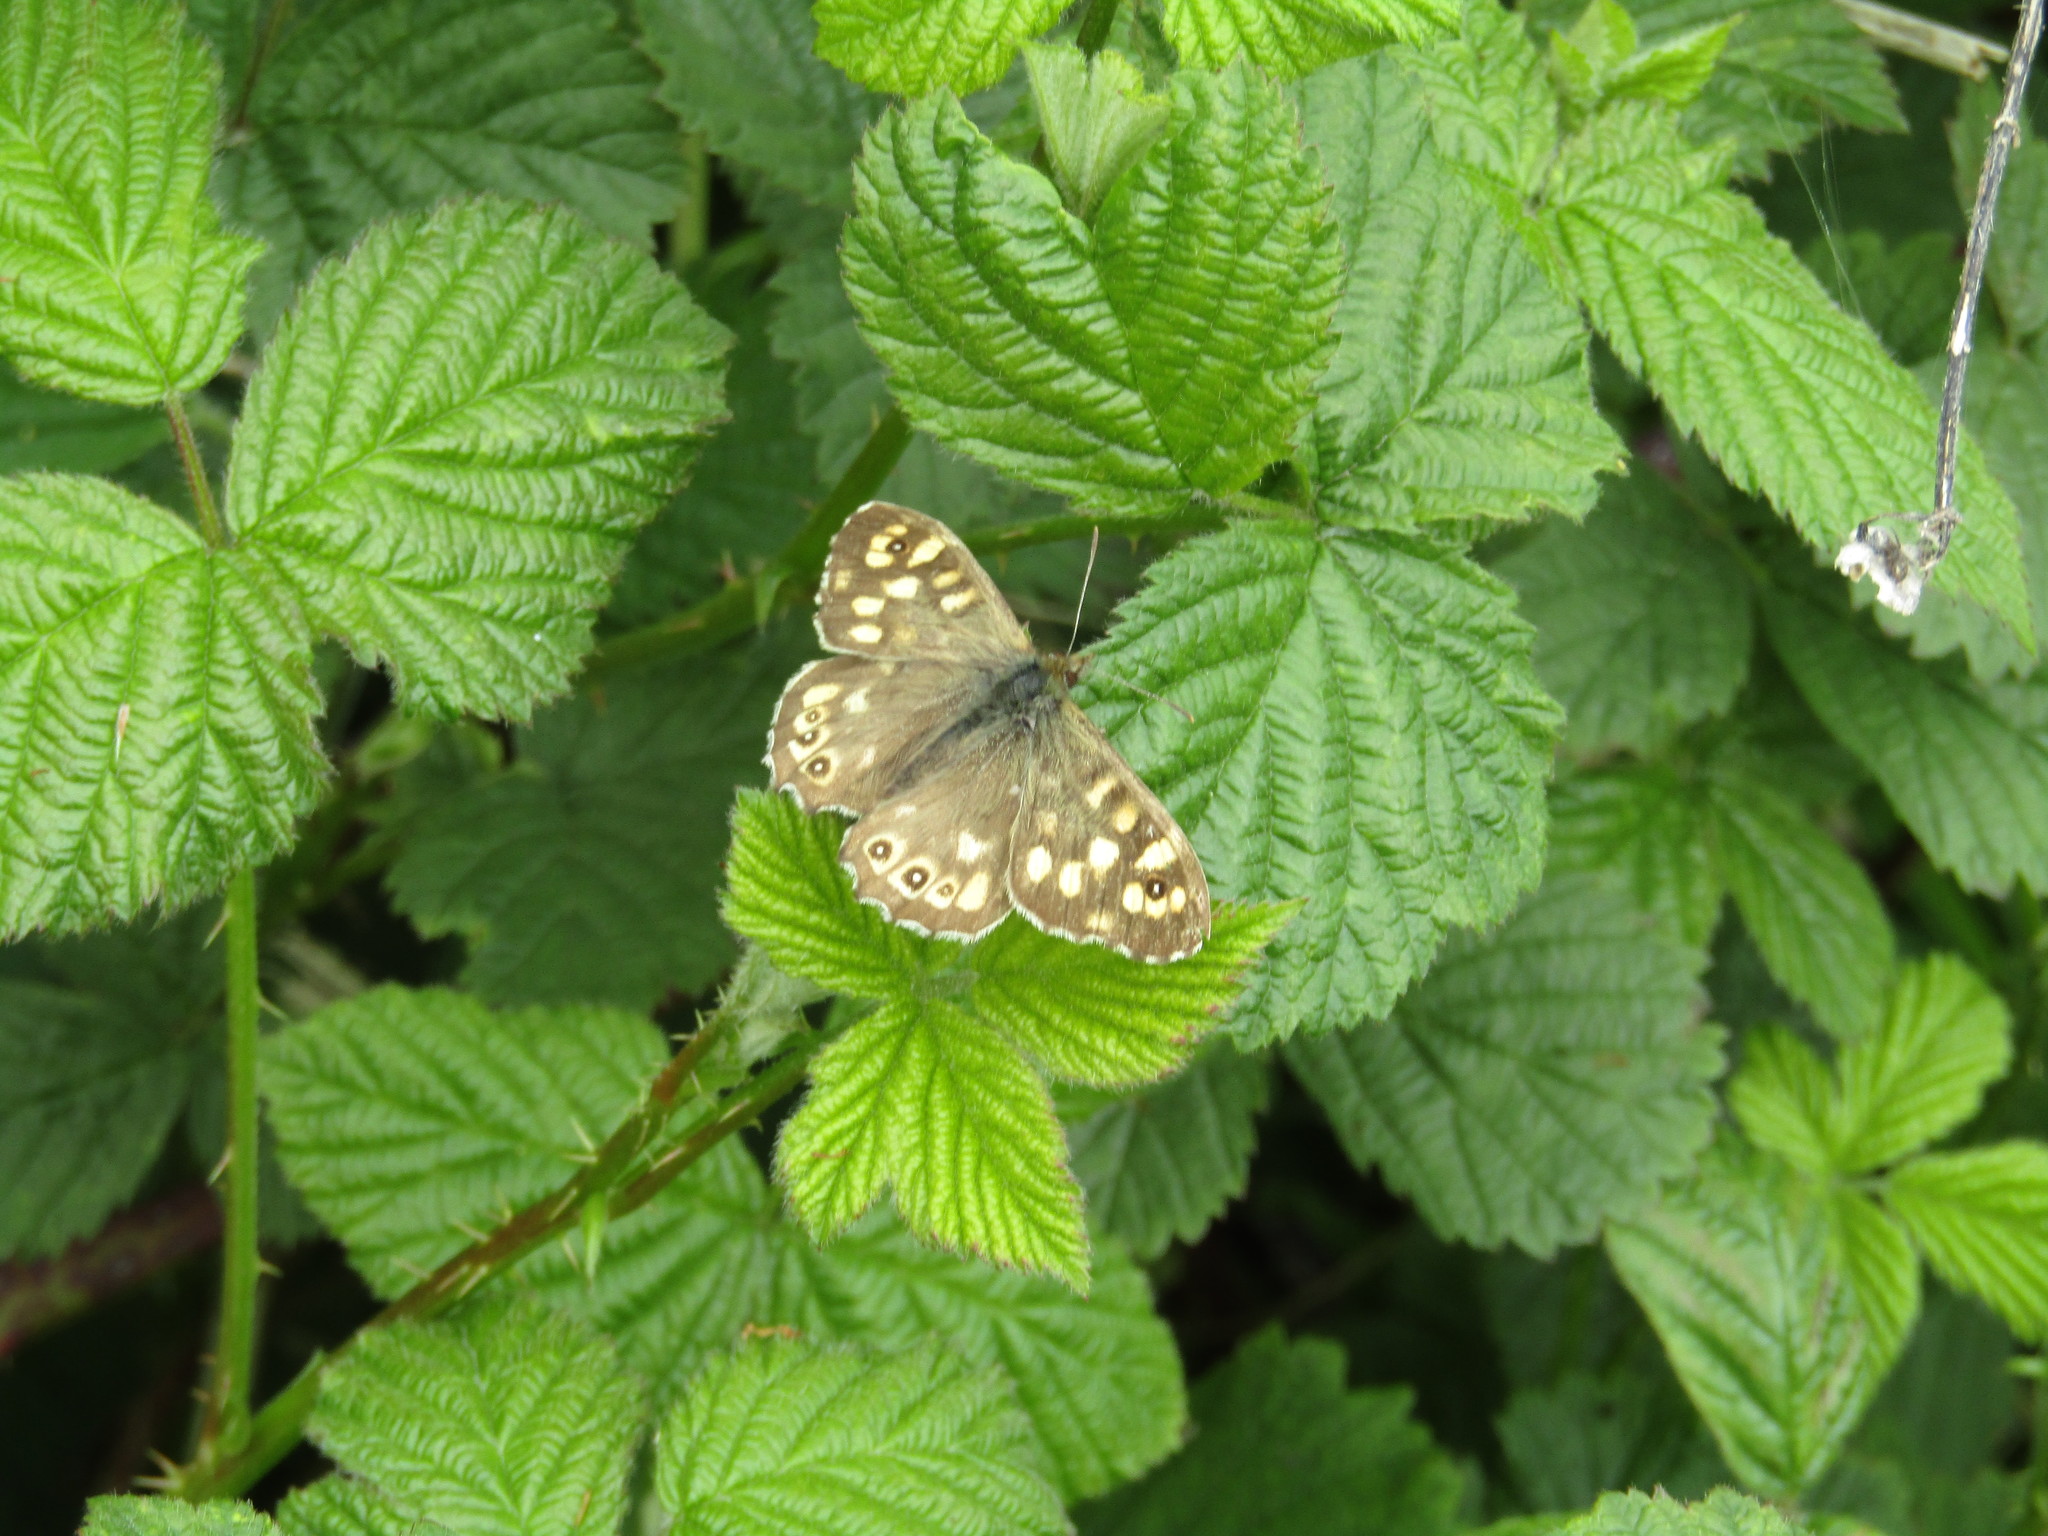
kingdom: Animalia
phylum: Arthropoda
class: Insecta
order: Lepidoptera
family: Nymphalidae
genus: Pararge
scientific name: Pararge aegeria
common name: Speckled wood
